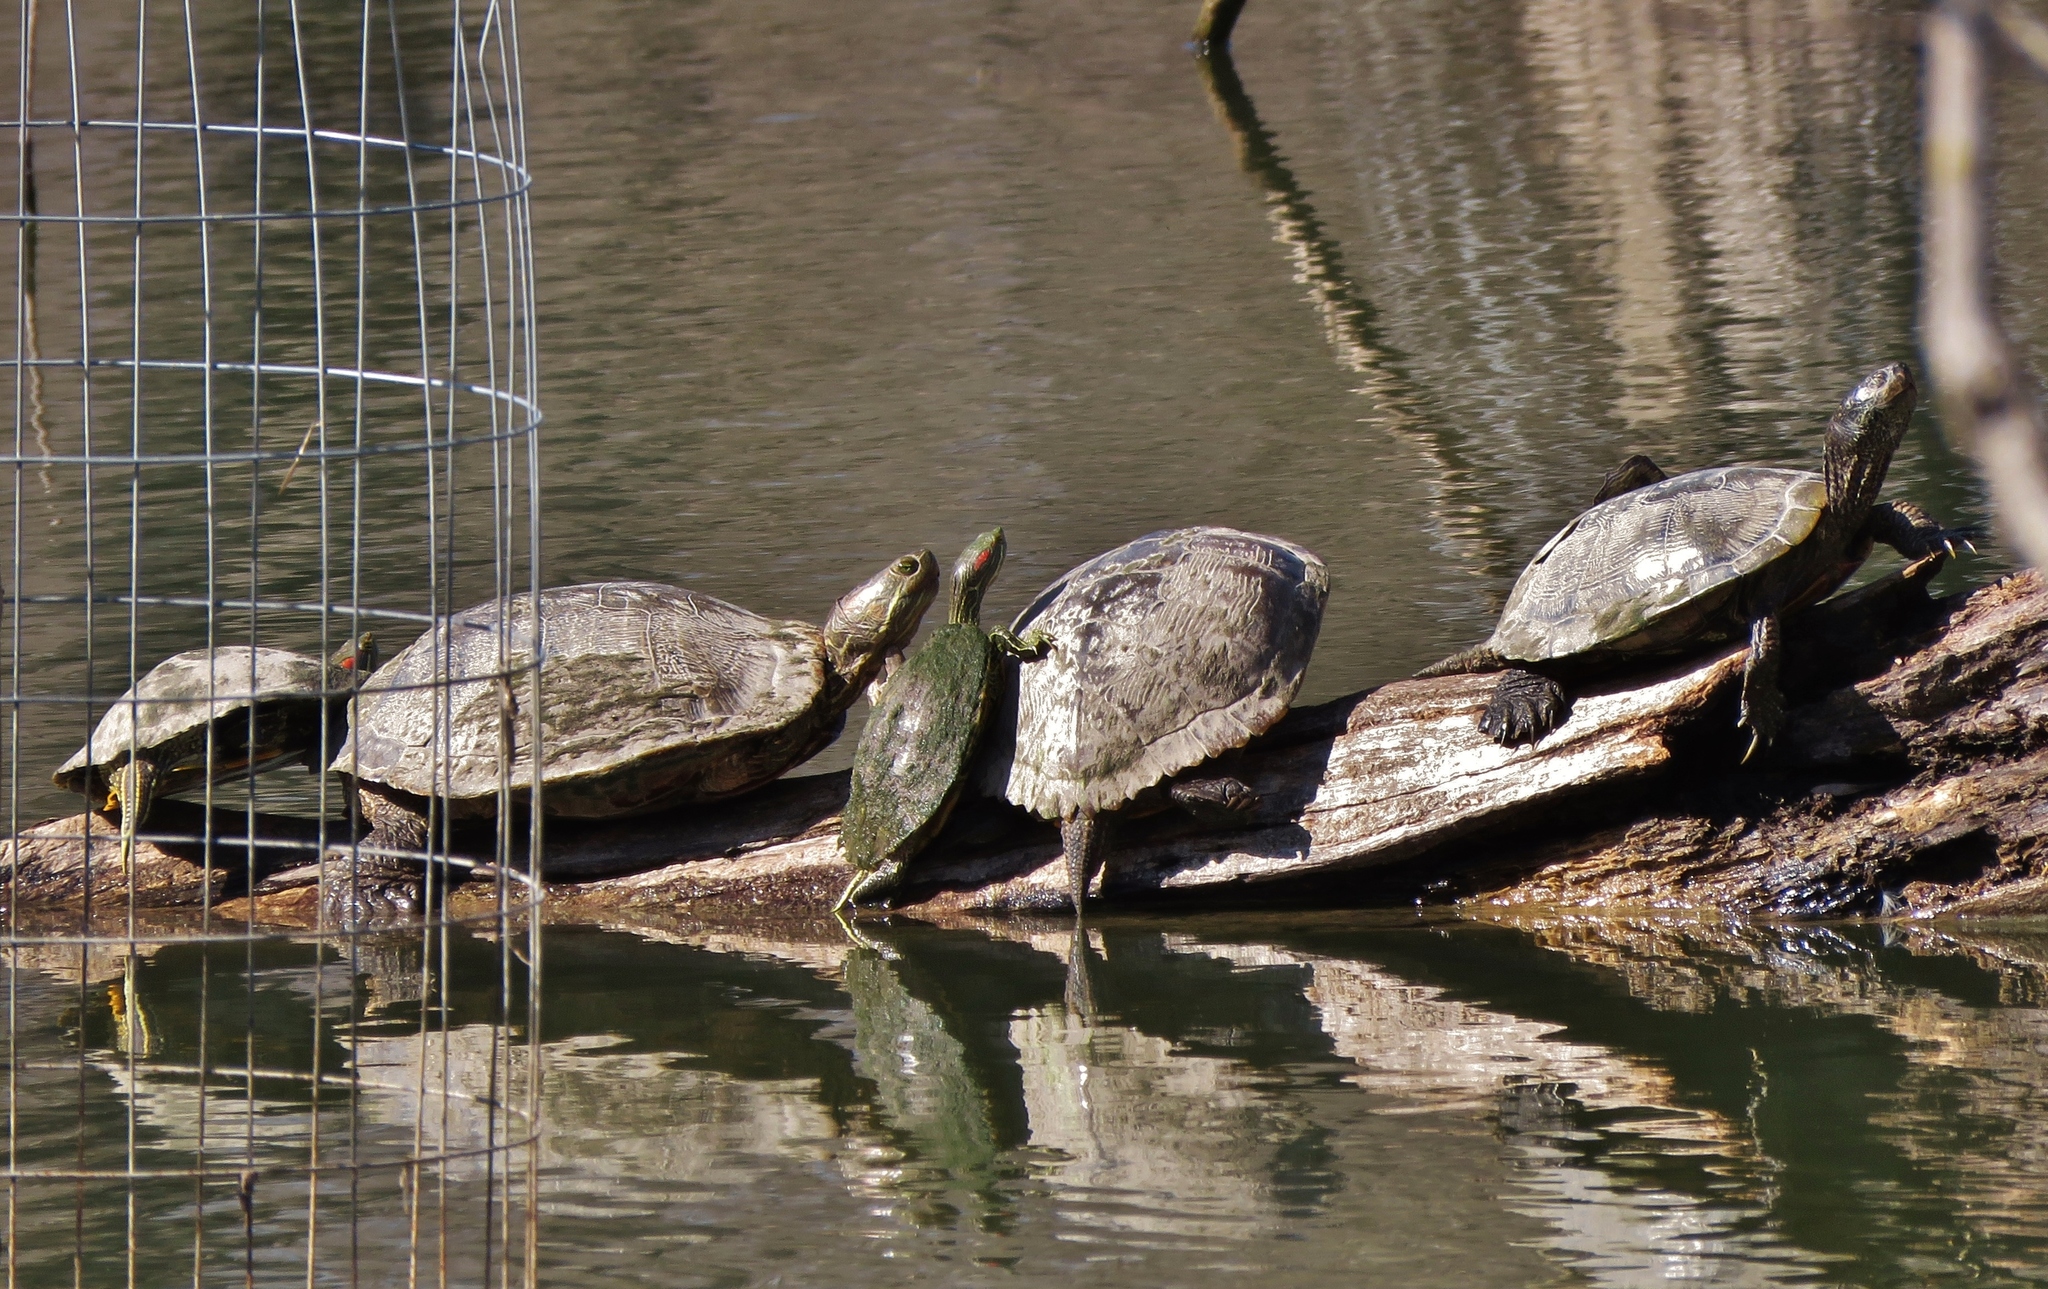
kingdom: Animalia
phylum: Chordata
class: Testudines
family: Emydidae
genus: Trachemys
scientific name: Trachemys scripta
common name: Slider
